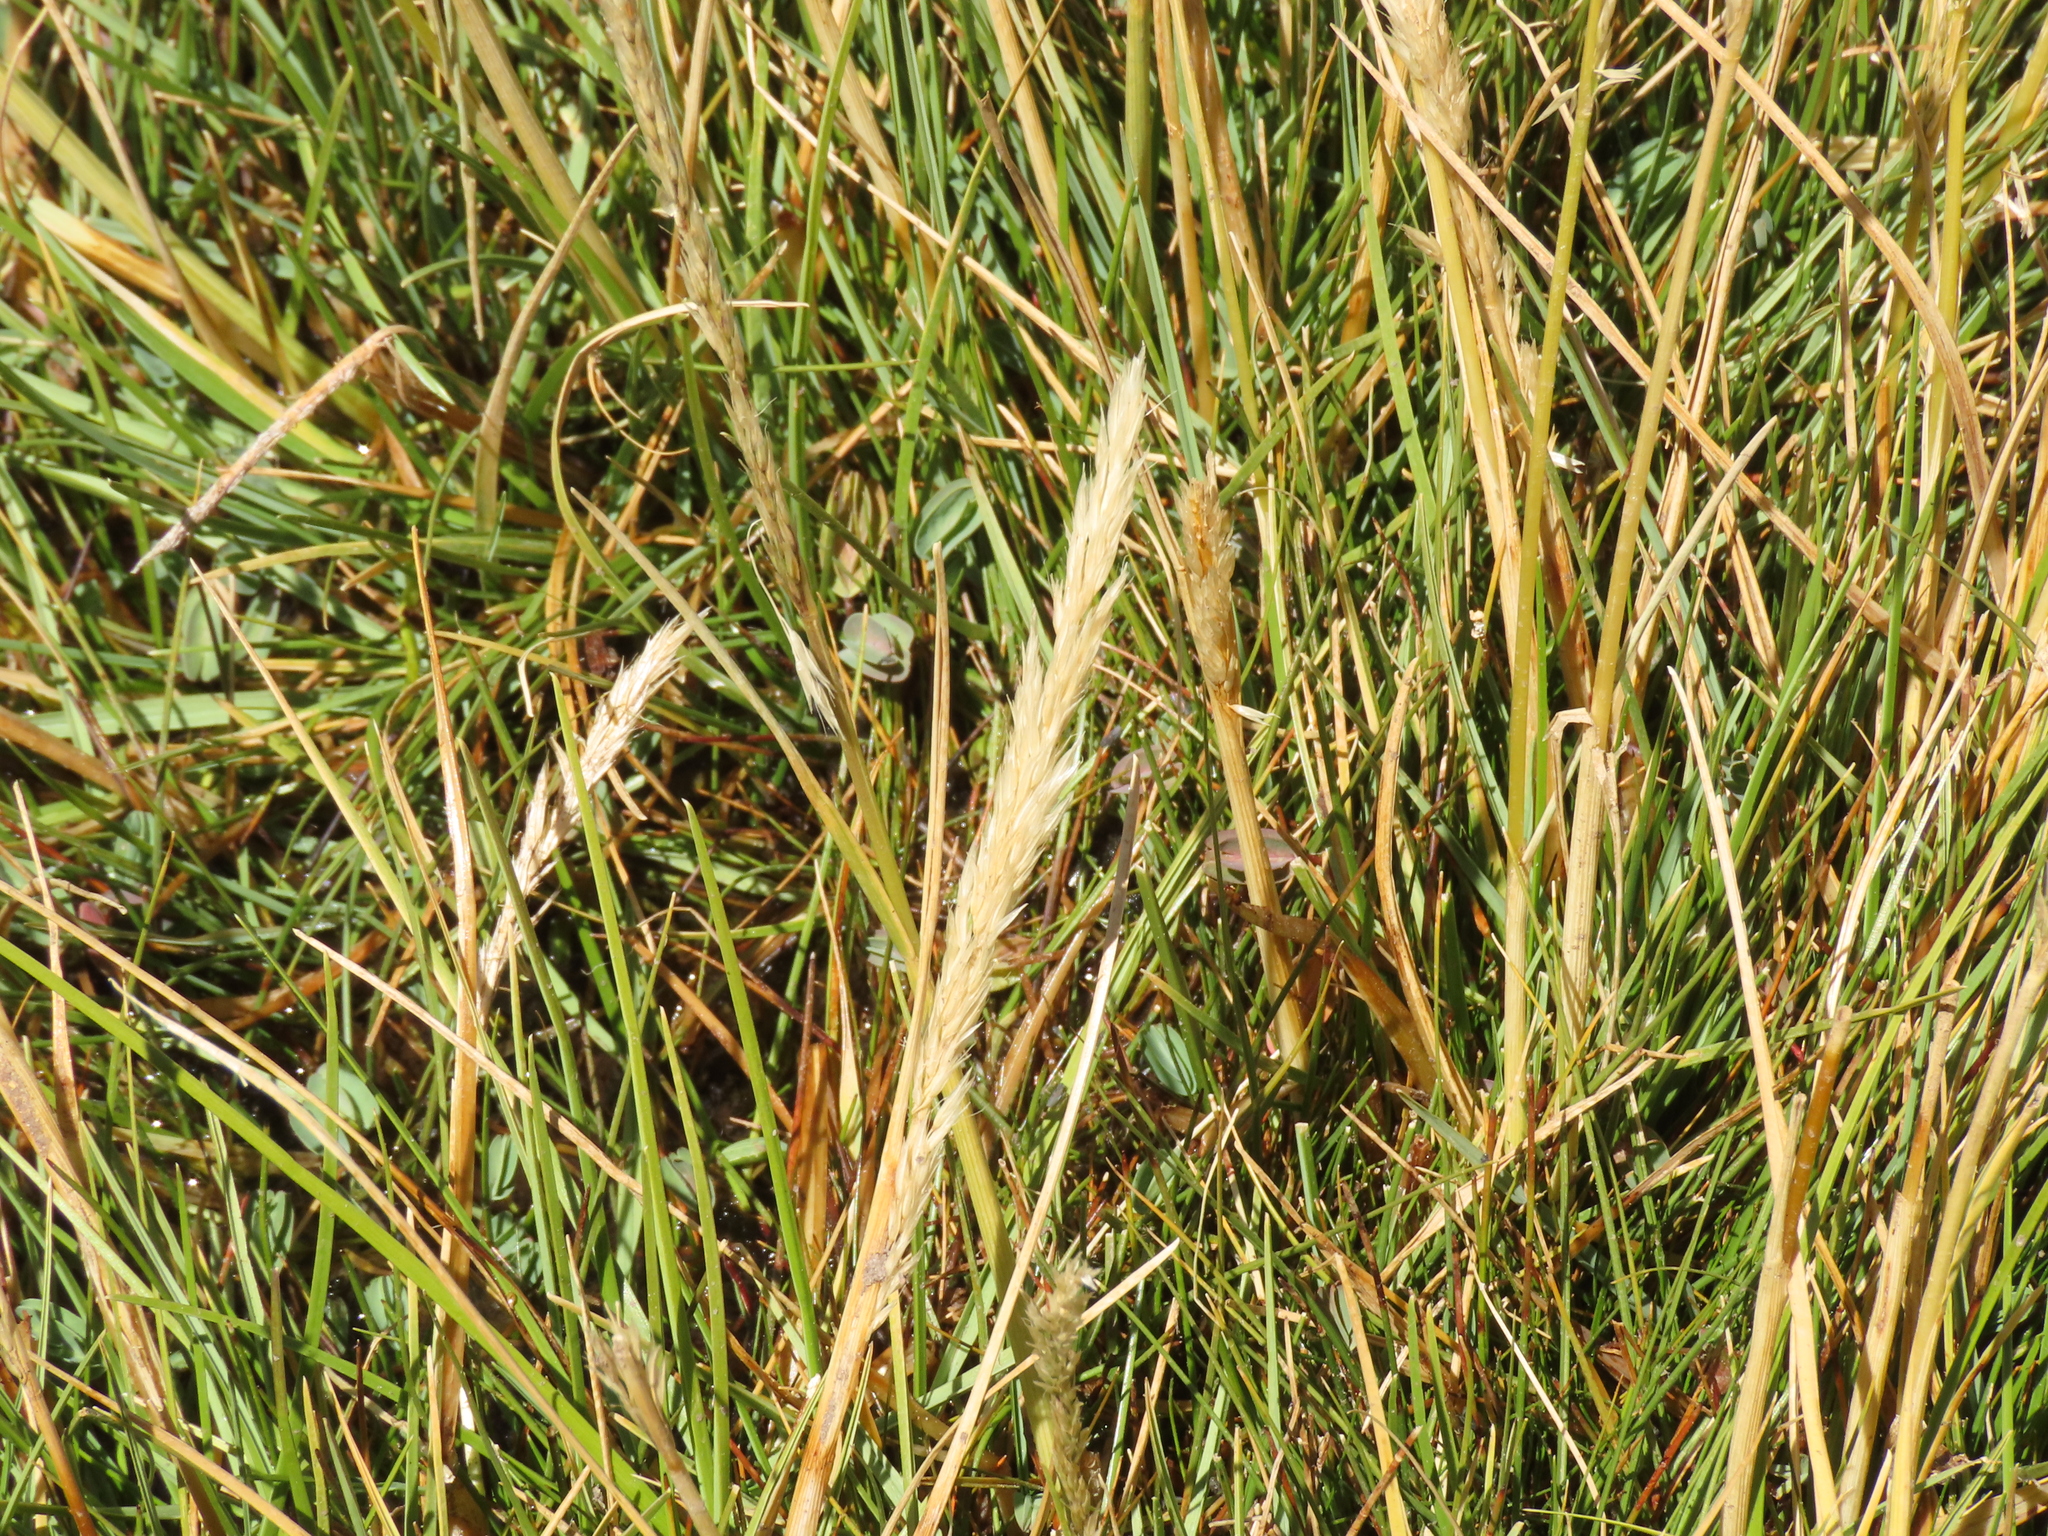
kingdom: Plantae
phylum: Tracheophyta
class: Liliopsida
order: Poales
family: Poaceae
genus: Cinnagrostis
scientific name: Cinnagrostis rigescens
